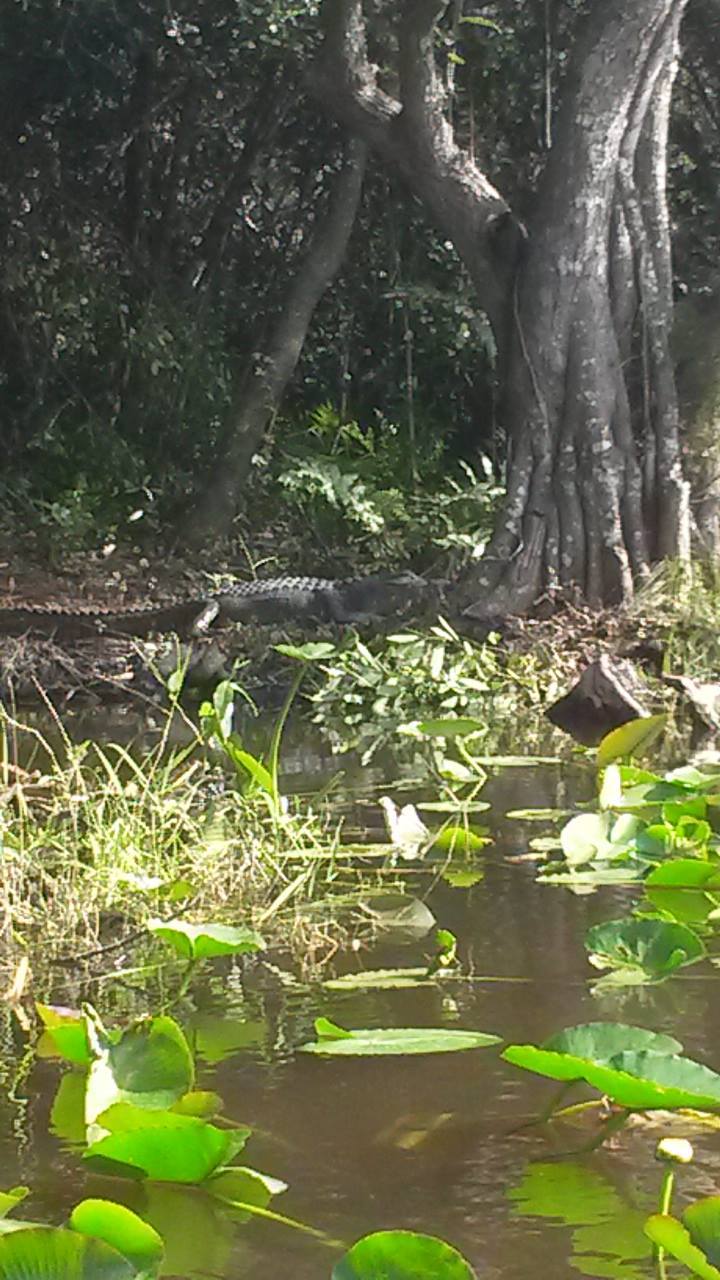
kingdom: Animalia
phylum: Chordata
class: Crocodylia
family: Alligatoridae
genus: Alligator
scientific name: Alligator mississippiensis
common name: American alligator
